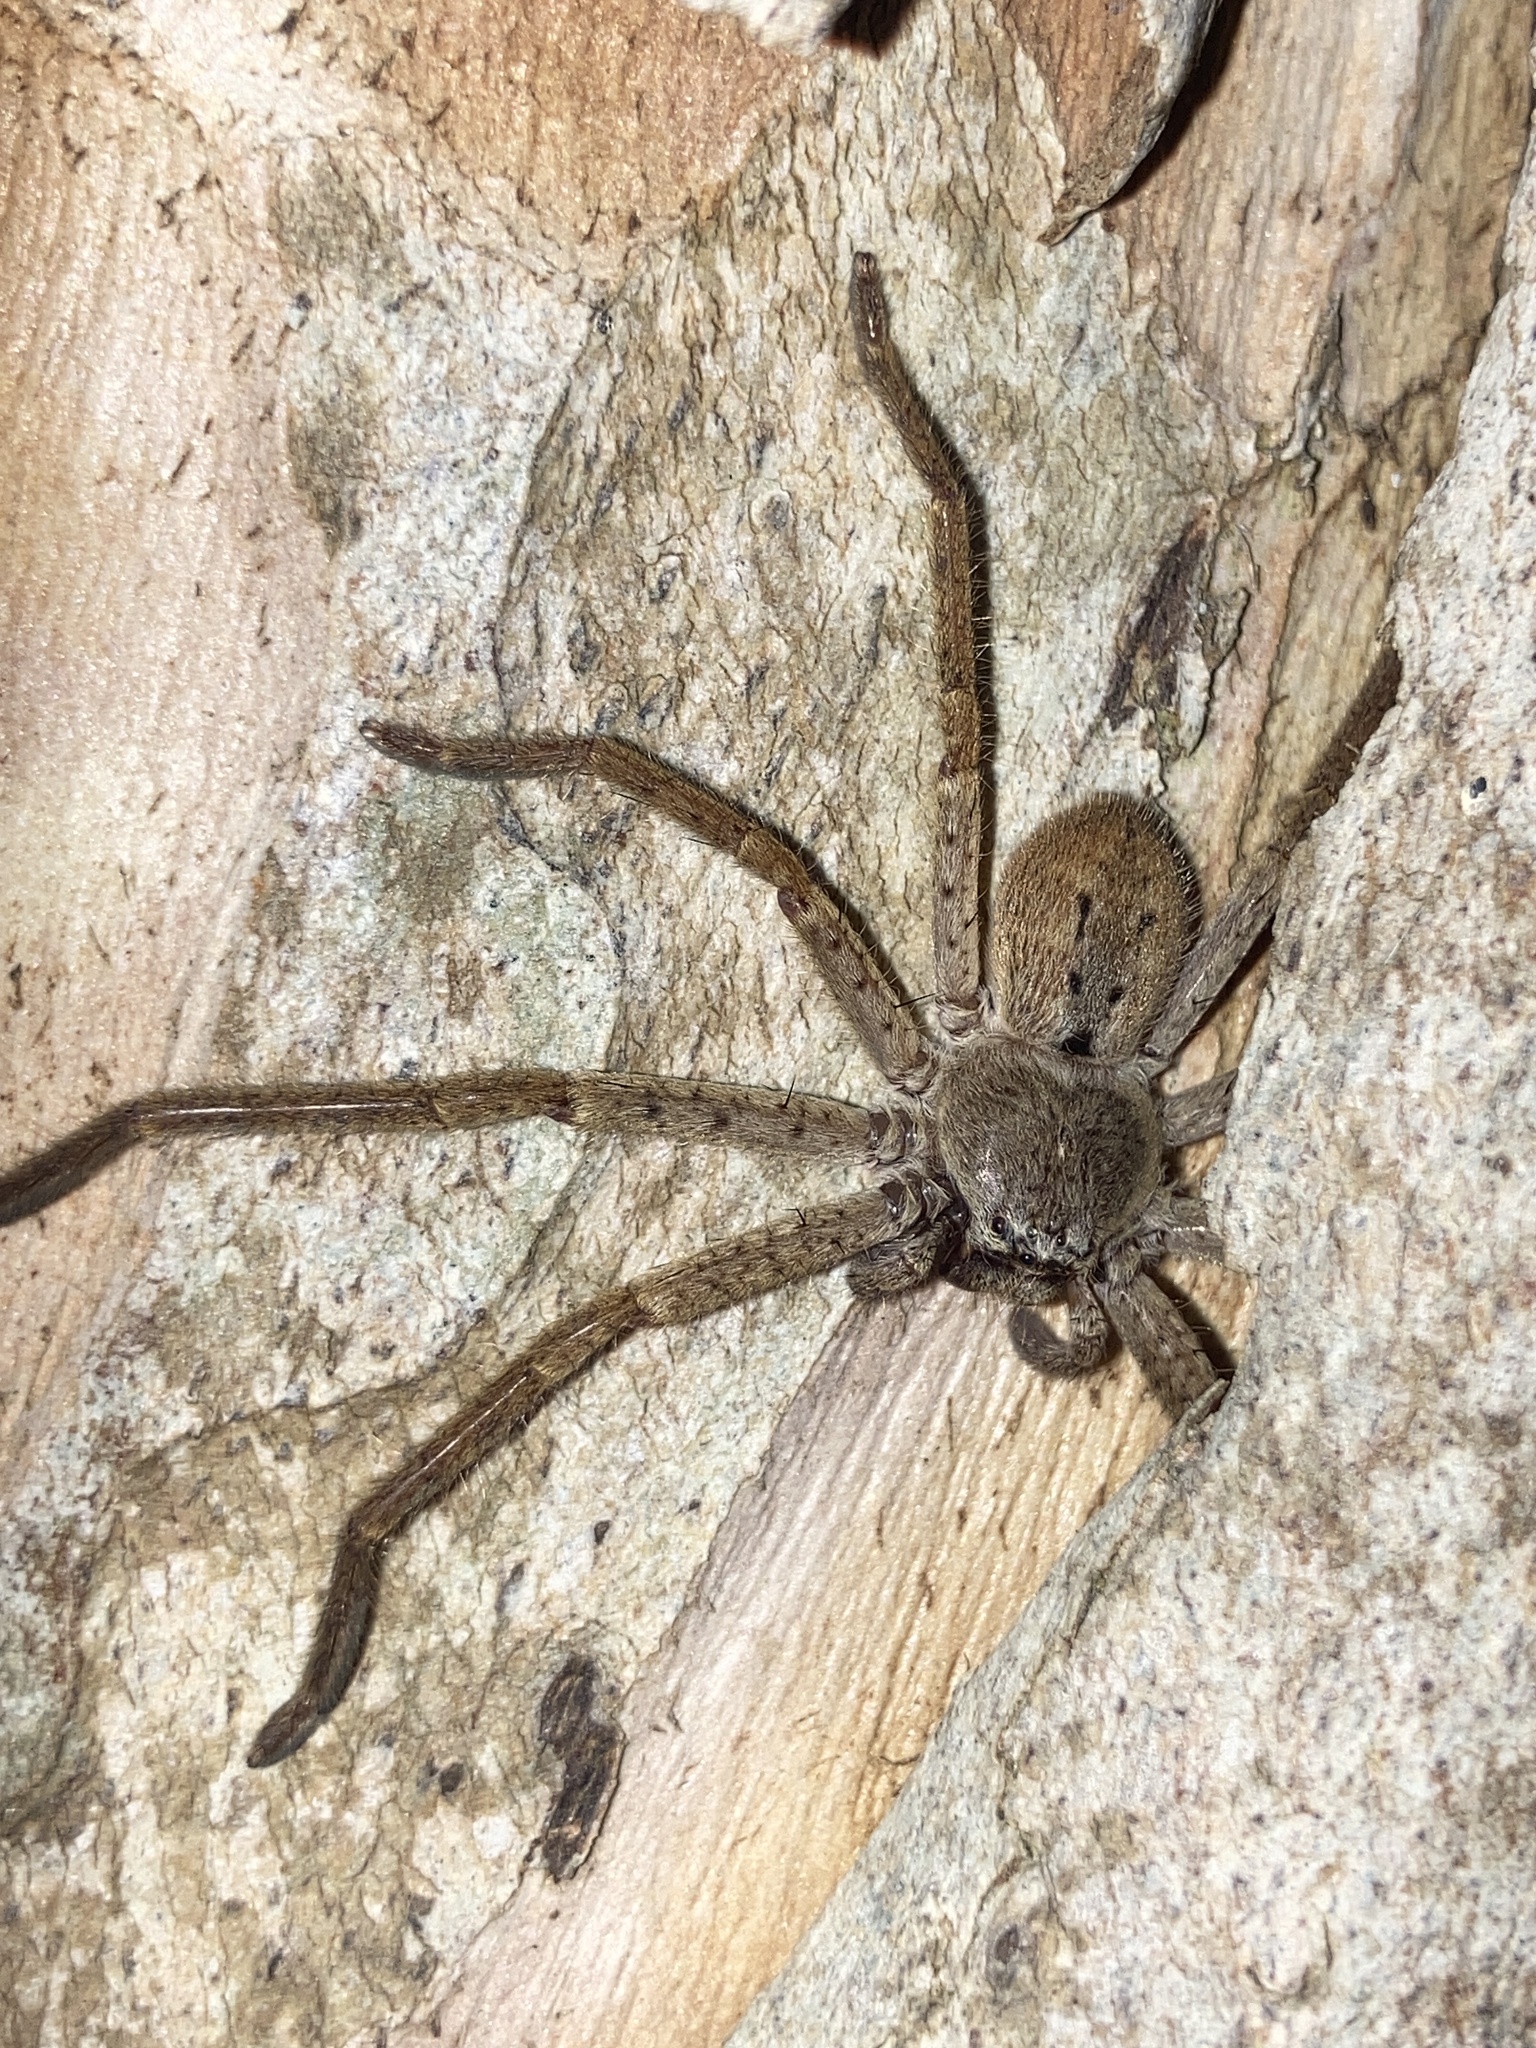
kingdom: Animalia
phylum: Arthropoda
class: Arachnida
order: Araneae
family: Sparassidae
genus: Isopeda
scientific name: Isopeda villosa
